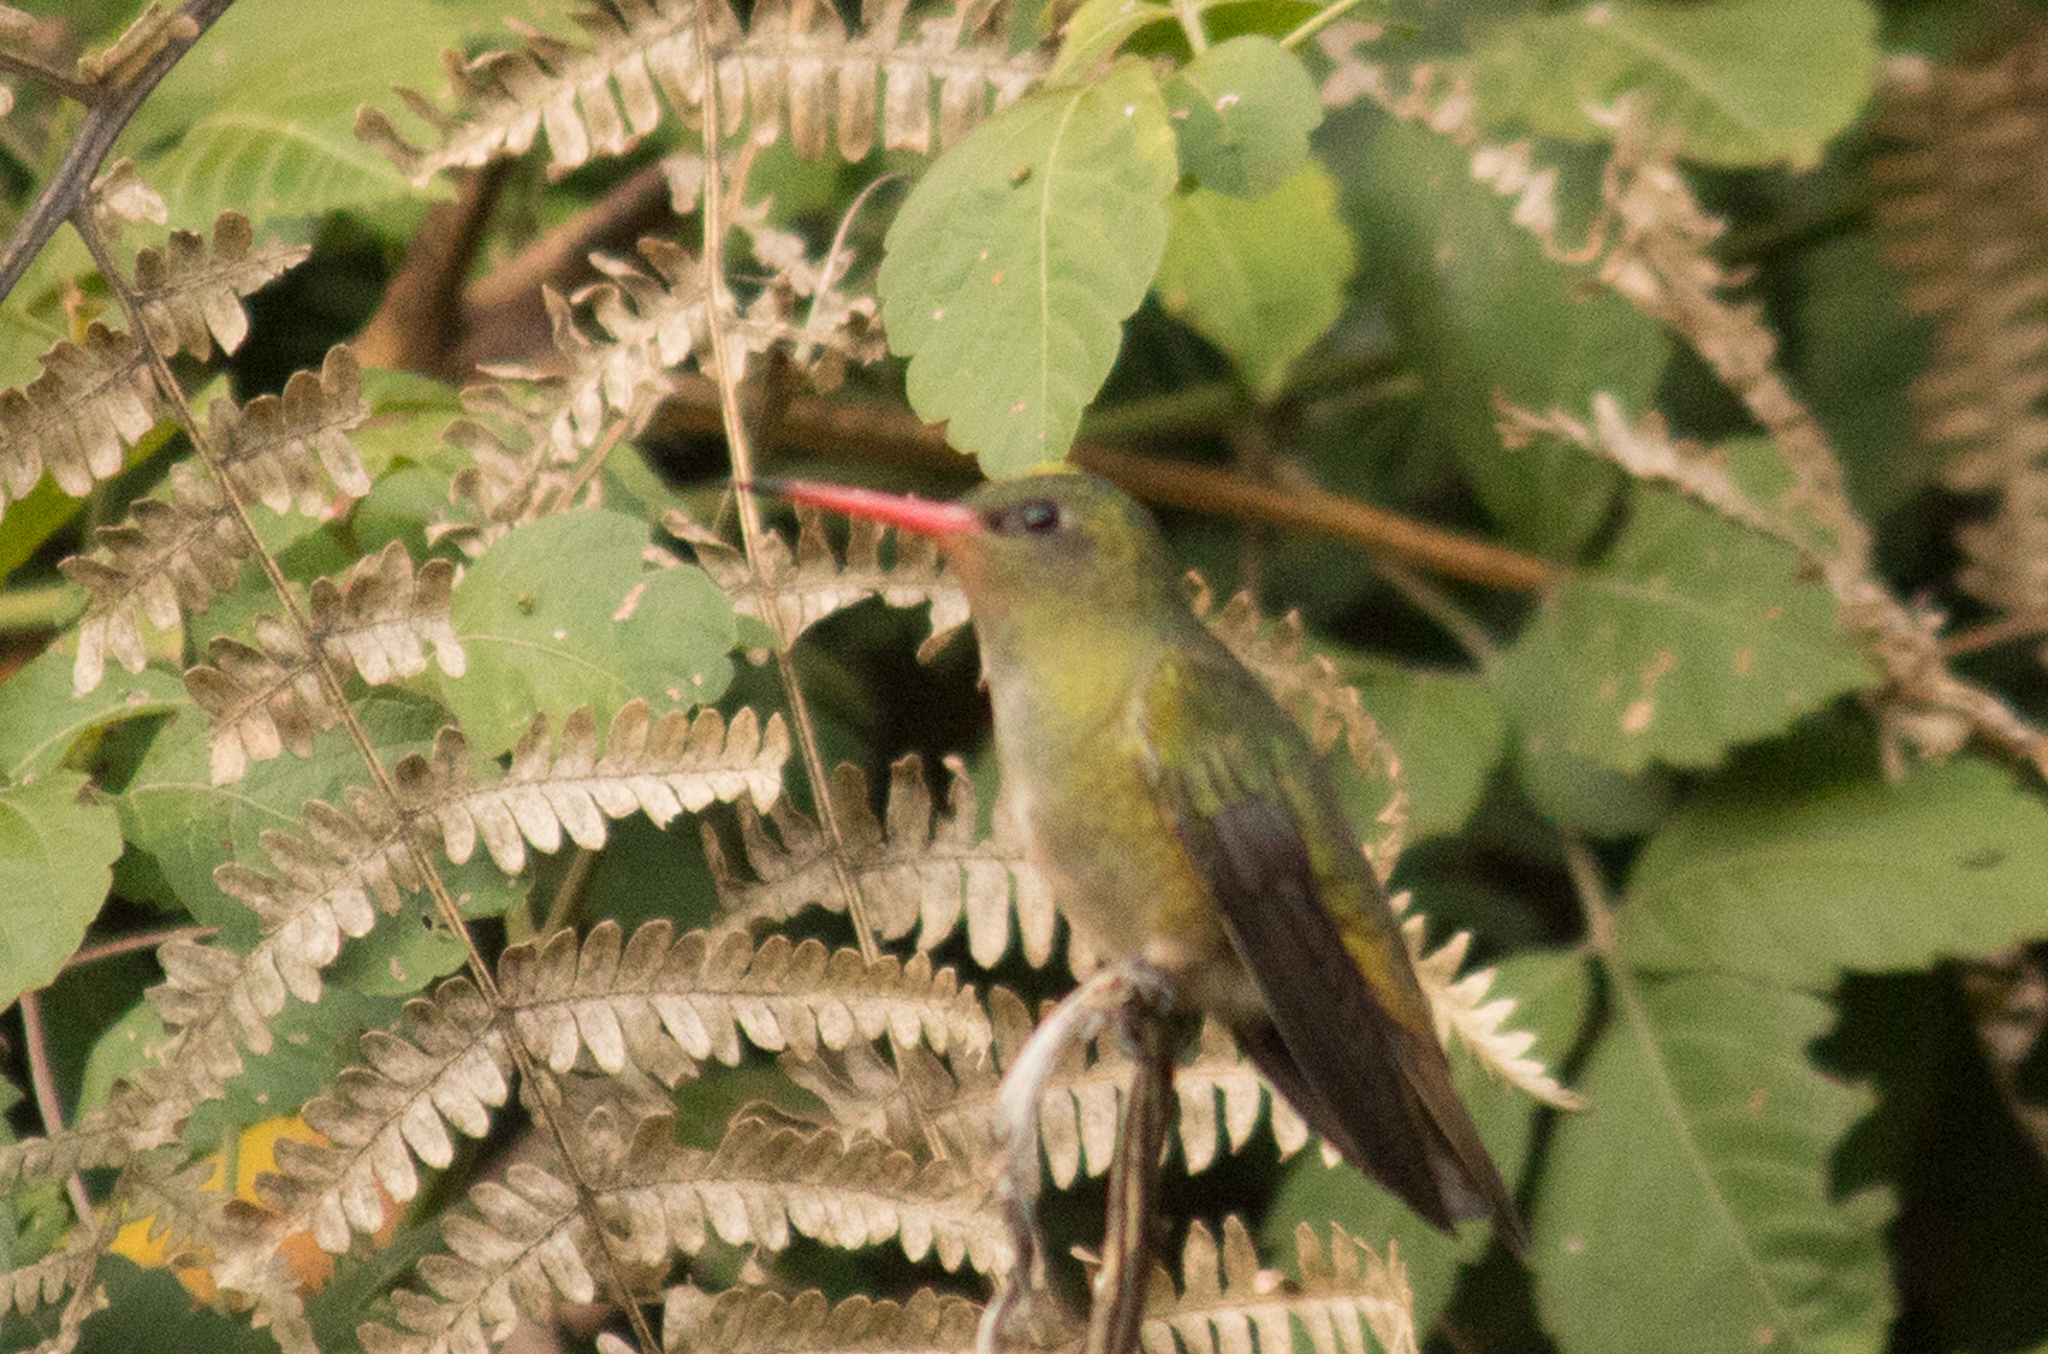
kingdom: Animalia
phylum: Chordata
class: Aves
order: Apodiformes
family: Trochilidae
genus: Hylocharis
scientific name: Hylocharis chrysura
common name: Gilded sapphire
